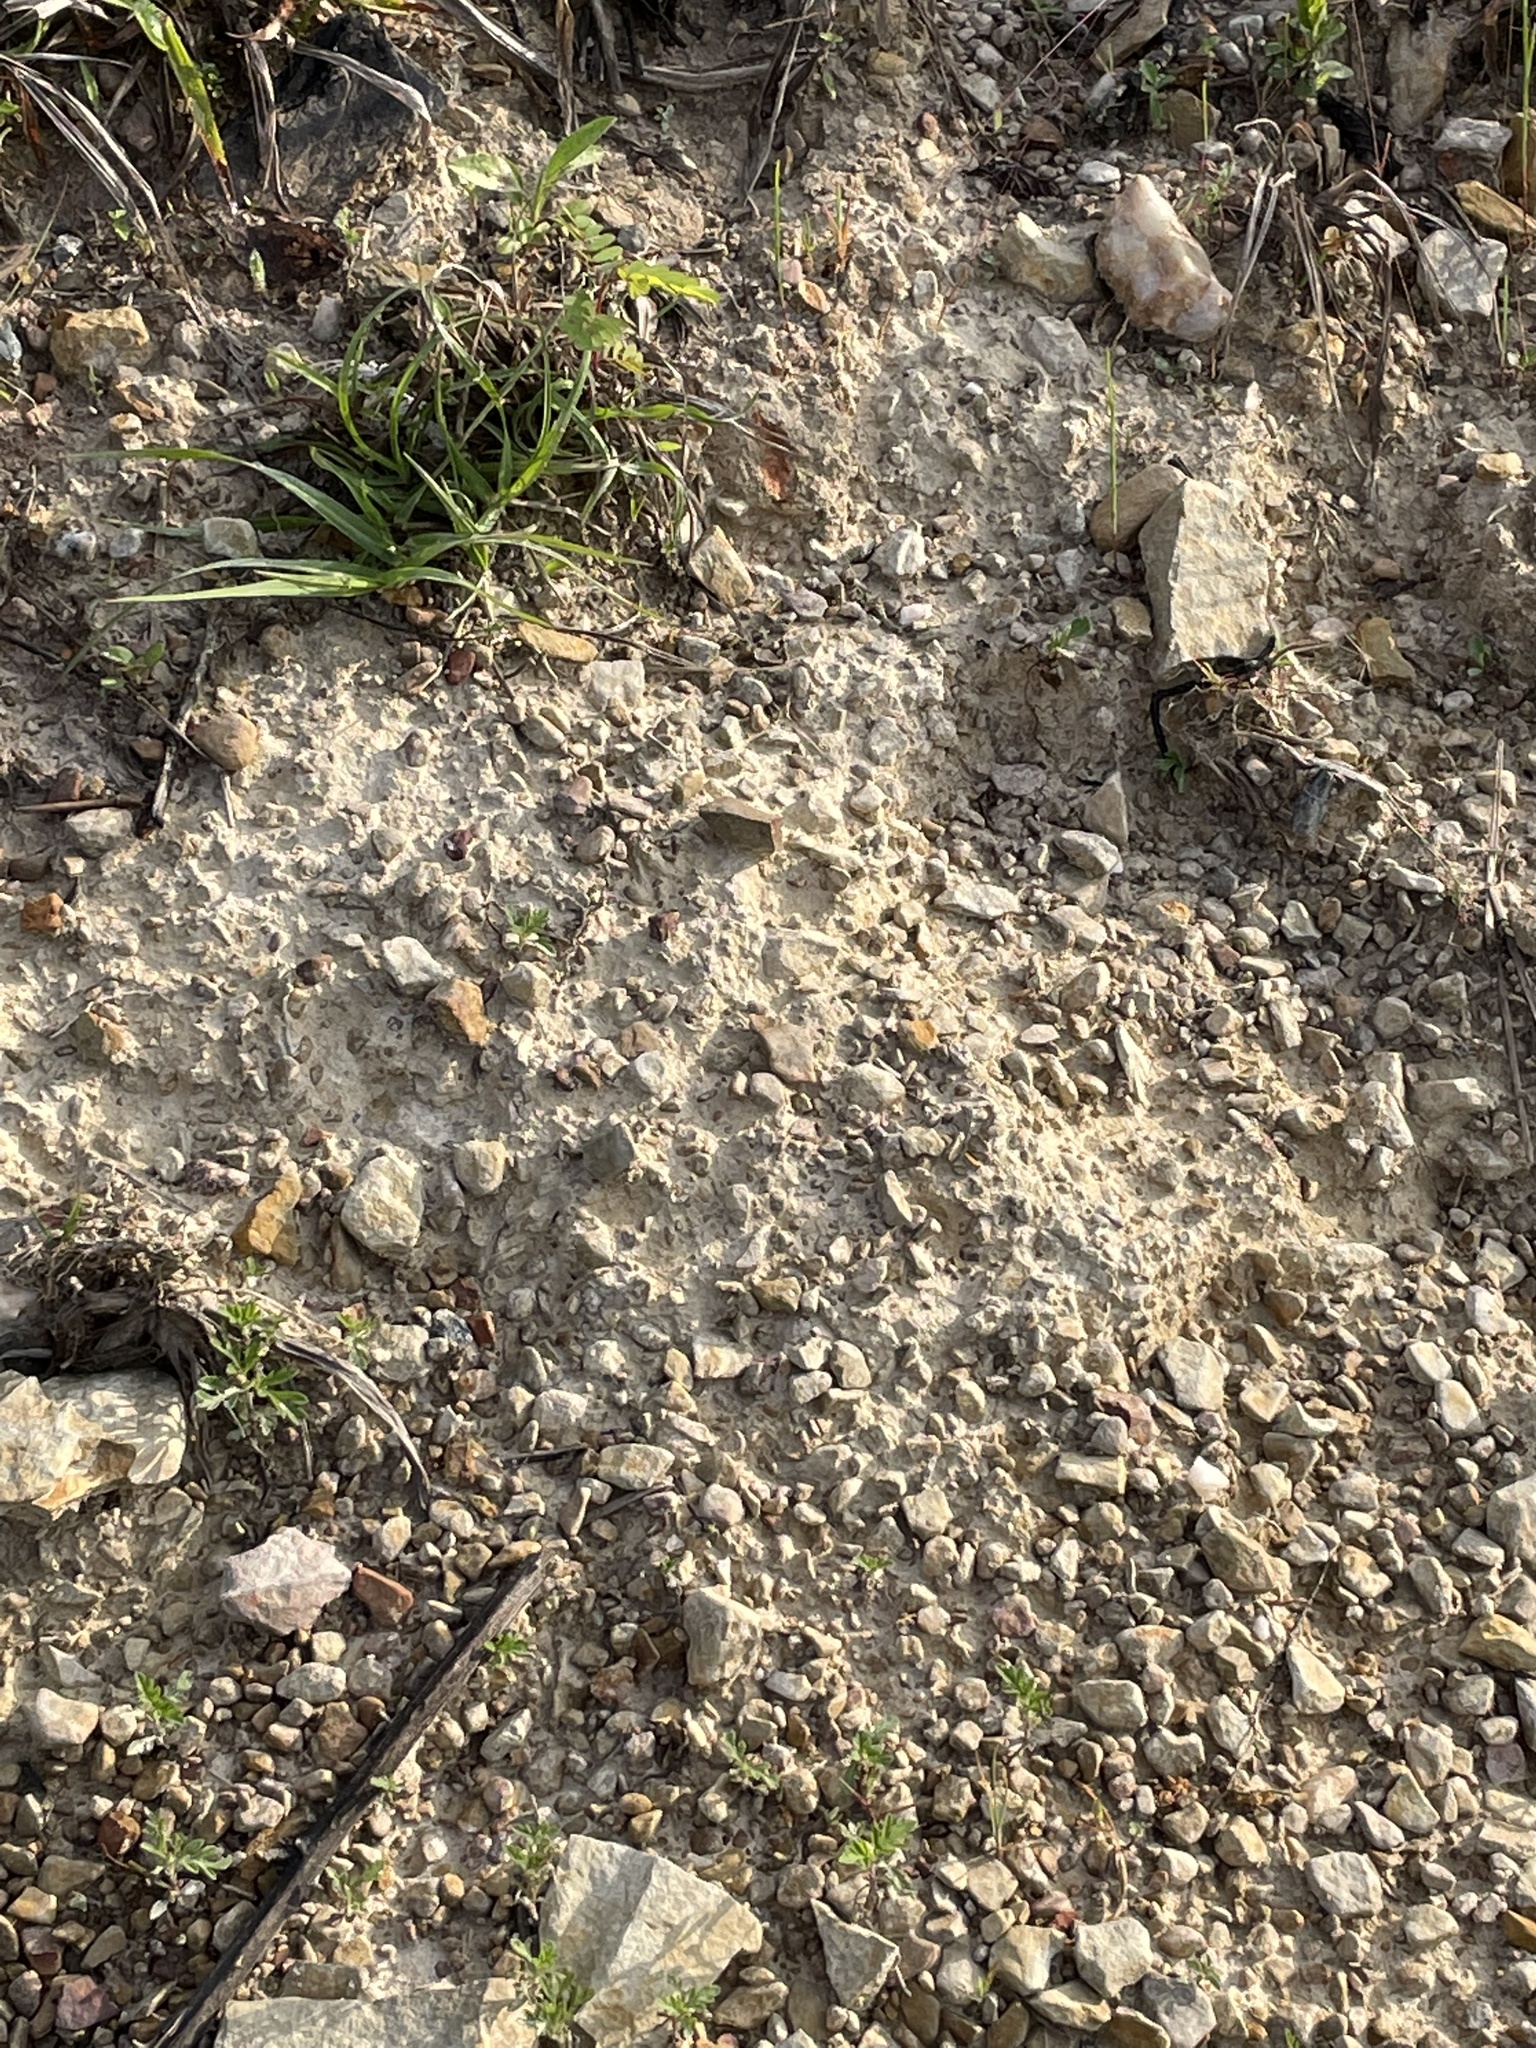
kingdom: Plantae
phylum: Tracheophyta
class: Magnoliopsida
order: Fabales
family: Fabaceae
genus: Baptisia
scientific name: Baptisia alba
